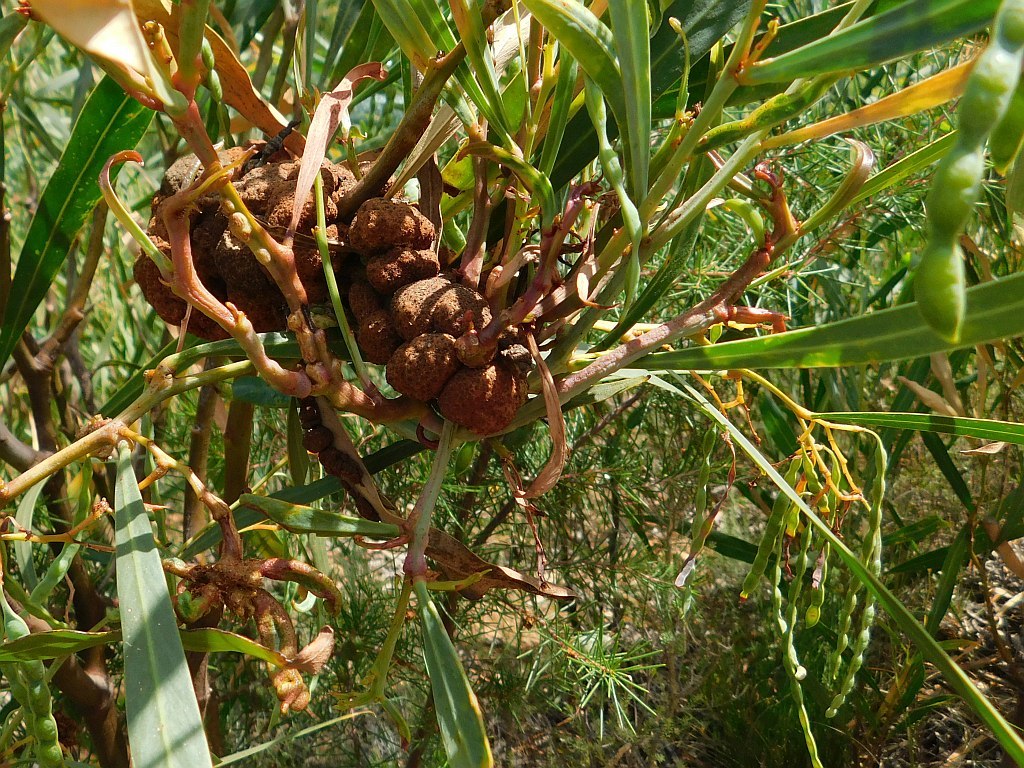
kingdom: Fungi
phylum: Basidiomycota
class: Pucciniomycetes
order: Pucciniales
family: Uromycladiaceae
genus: Uromycladium
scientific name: Uromycladium morrisii
